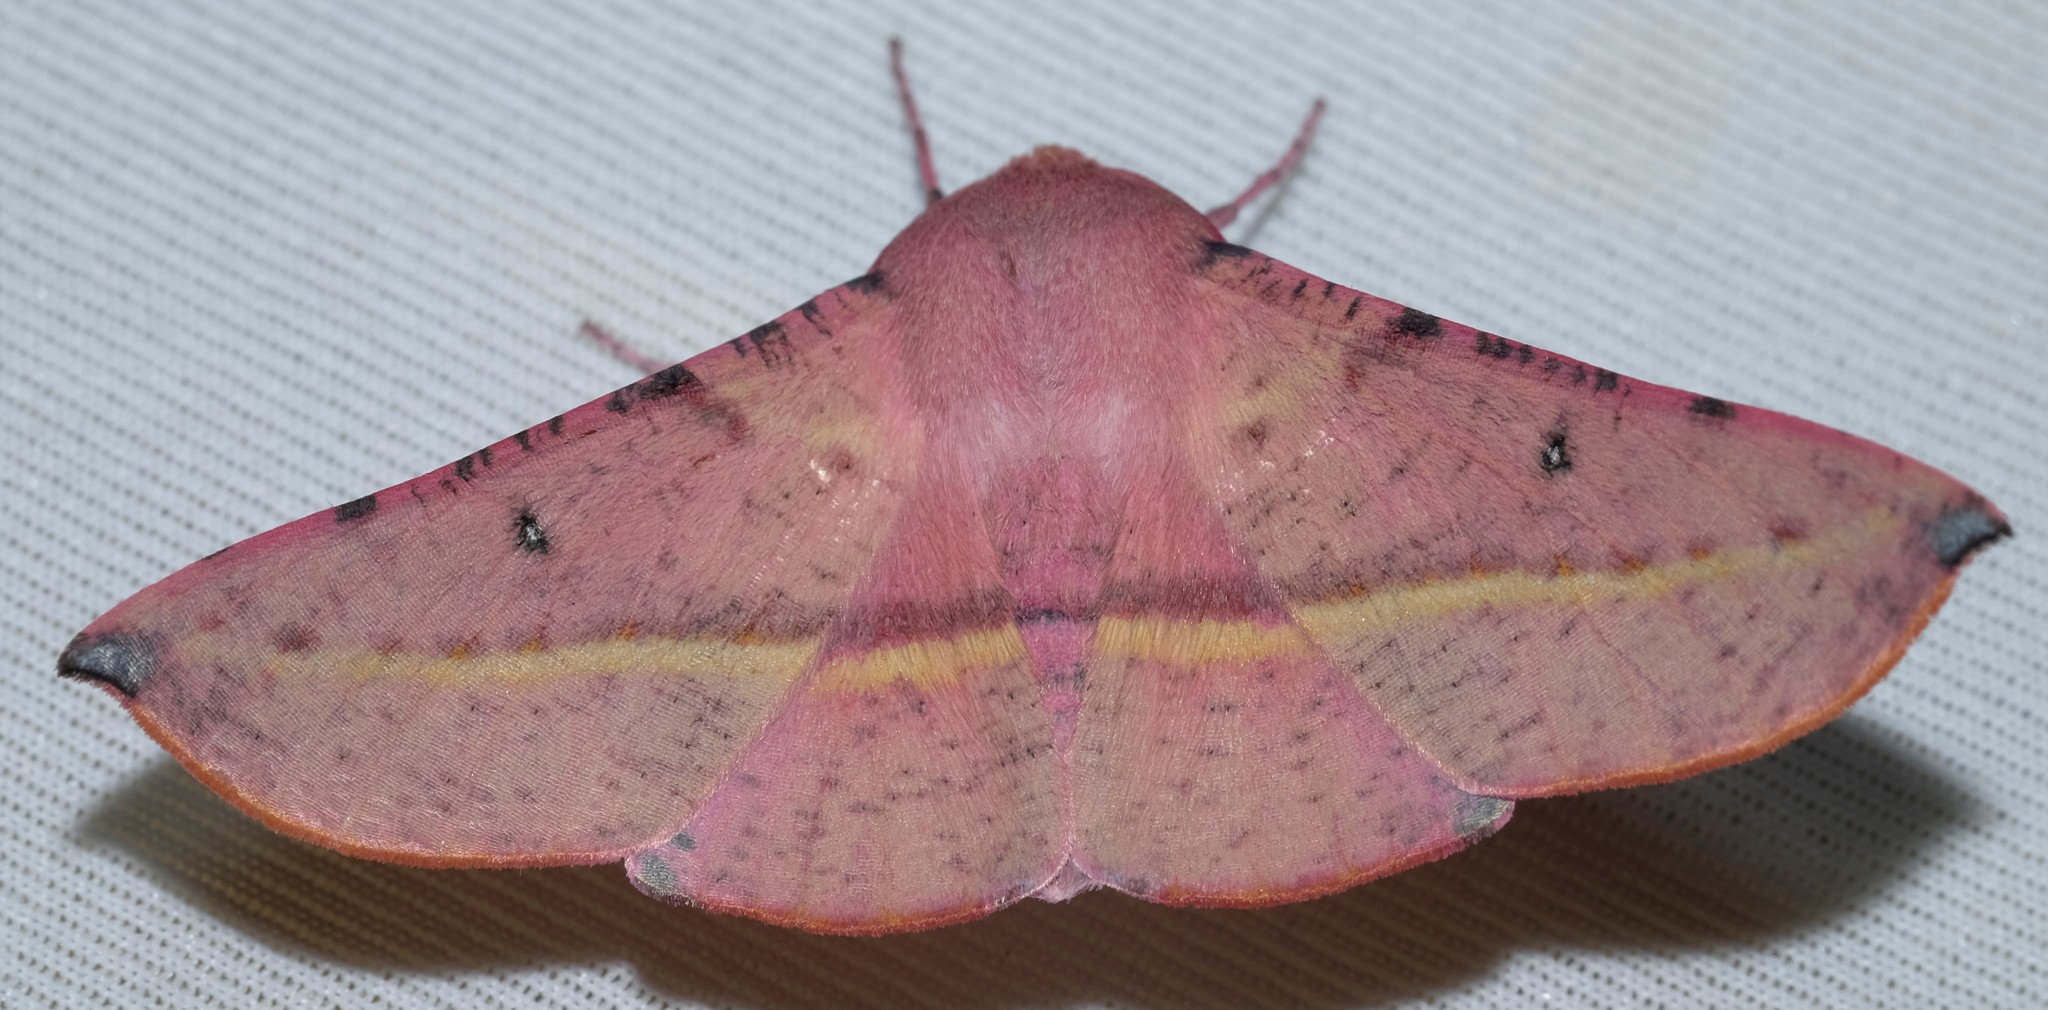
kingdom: Animalia
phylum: Arthropoda
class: Insecta
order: Lepidoptera
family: Geometridae
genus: Oenochroma
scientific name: Oenochroma vinaria
